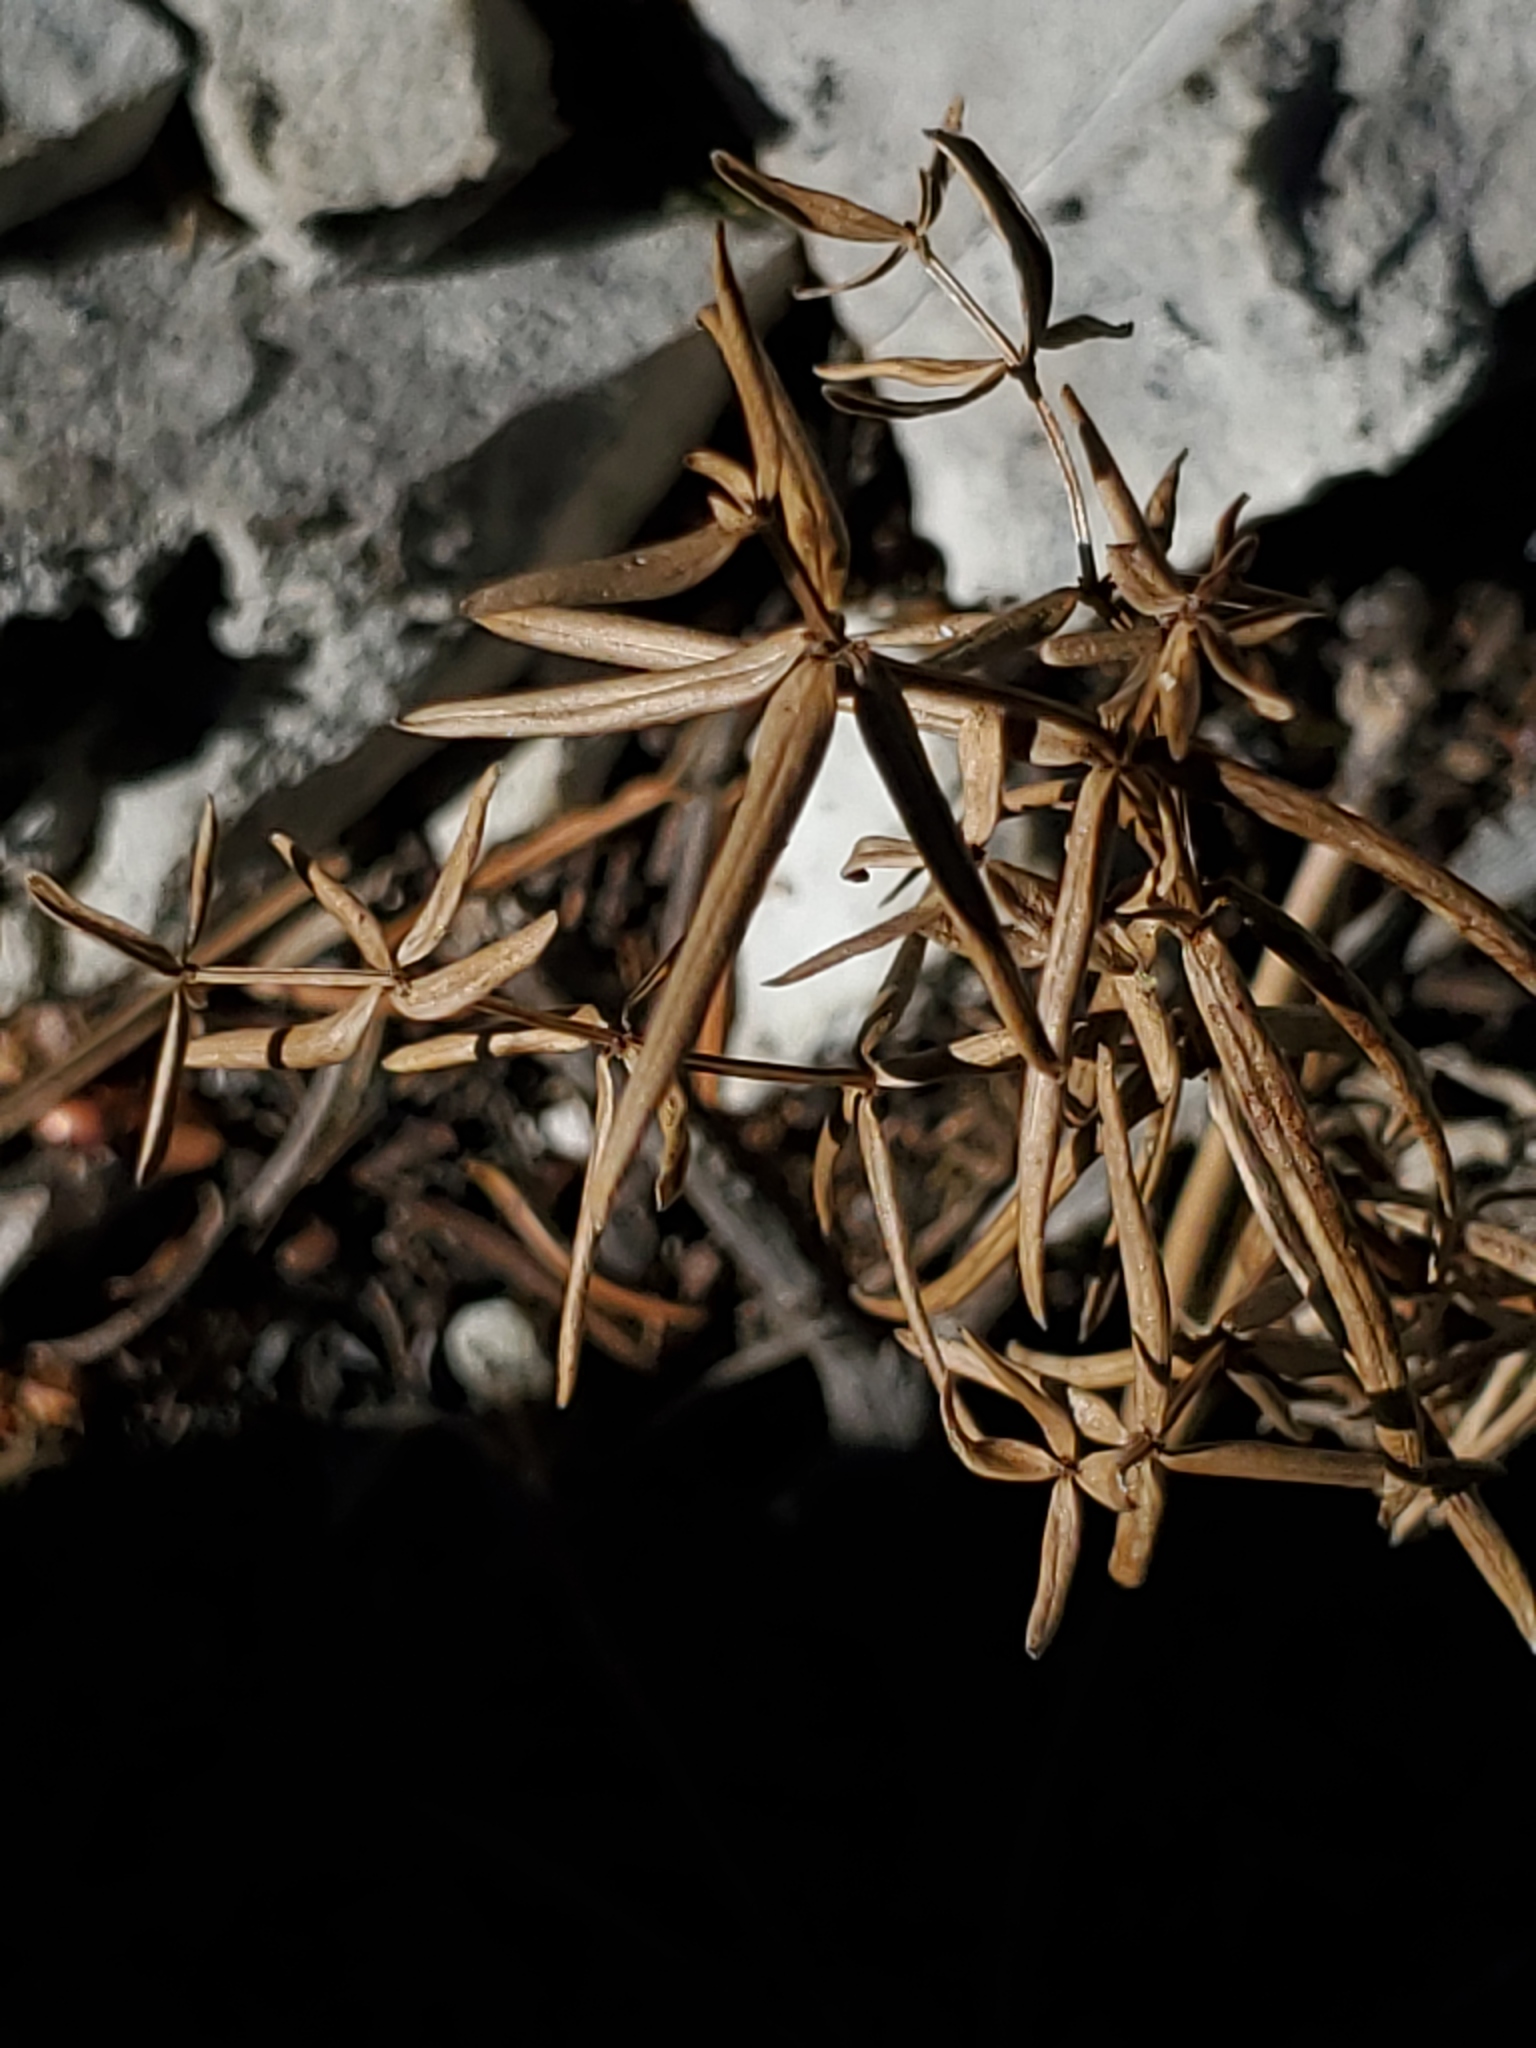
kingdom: Plantae
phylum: Tracheophyta
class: Magnoliopsida
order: Gentianales
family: Rubiaceae
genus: Galium
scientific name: Galium boreale
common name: Northern bedstraw
